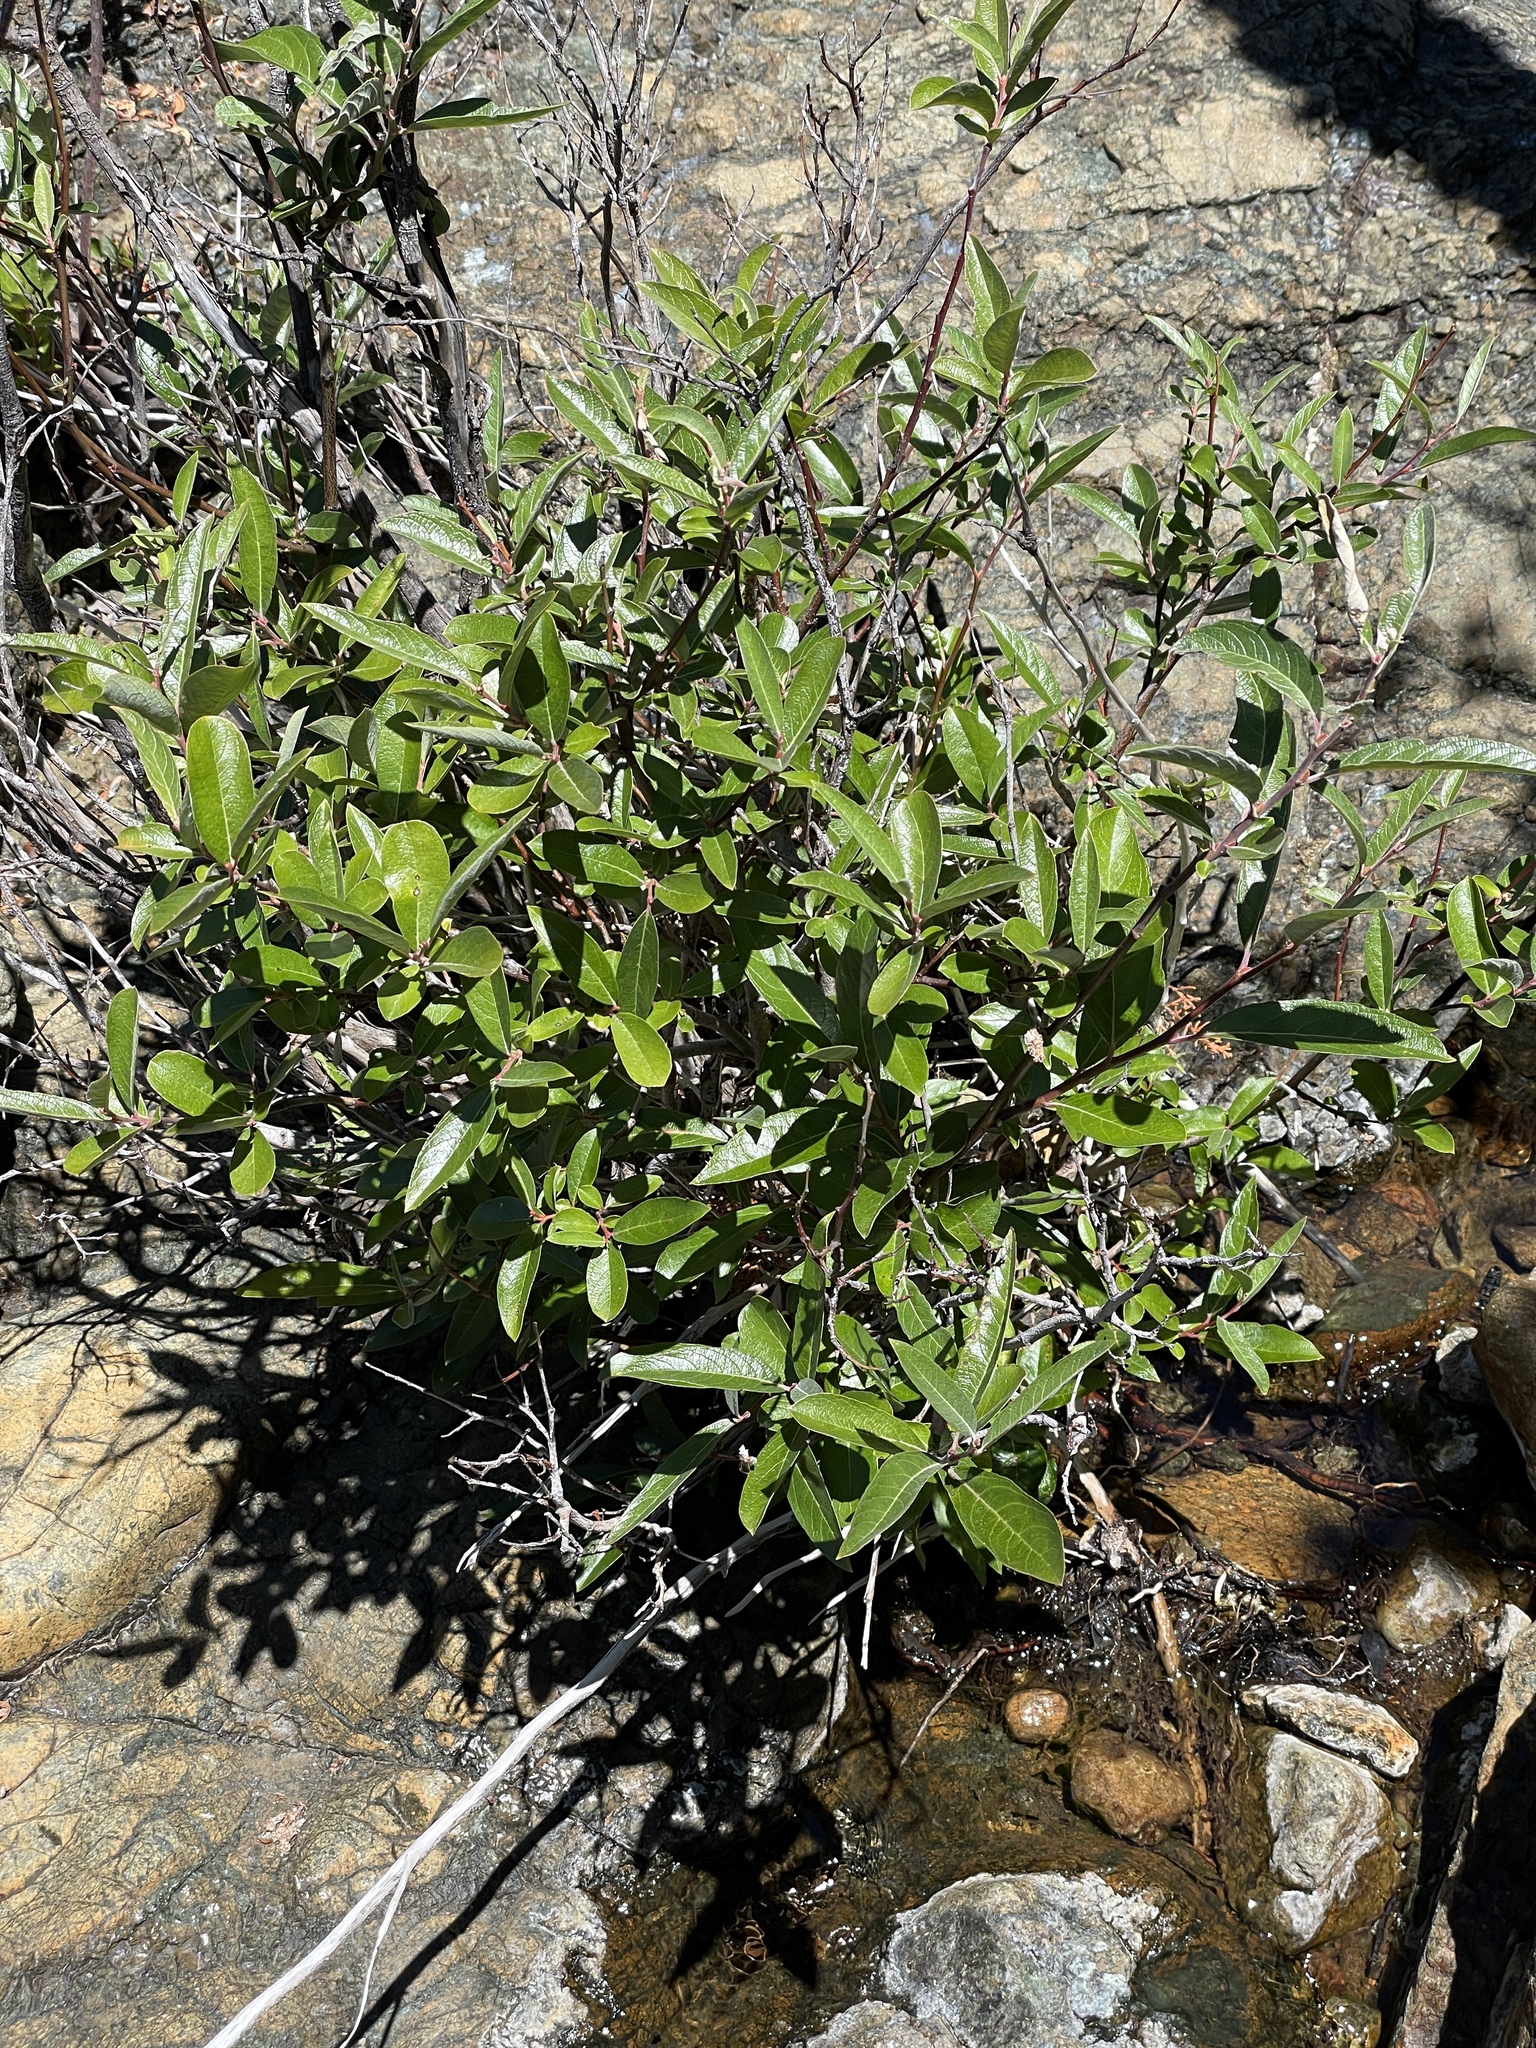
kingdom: Plantae
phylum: Tracheophyta
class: Magnoliopsida
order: Malpighiales
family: Salicaceae
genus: Salix
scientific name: Salix breweri
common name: Brewer’s willow
